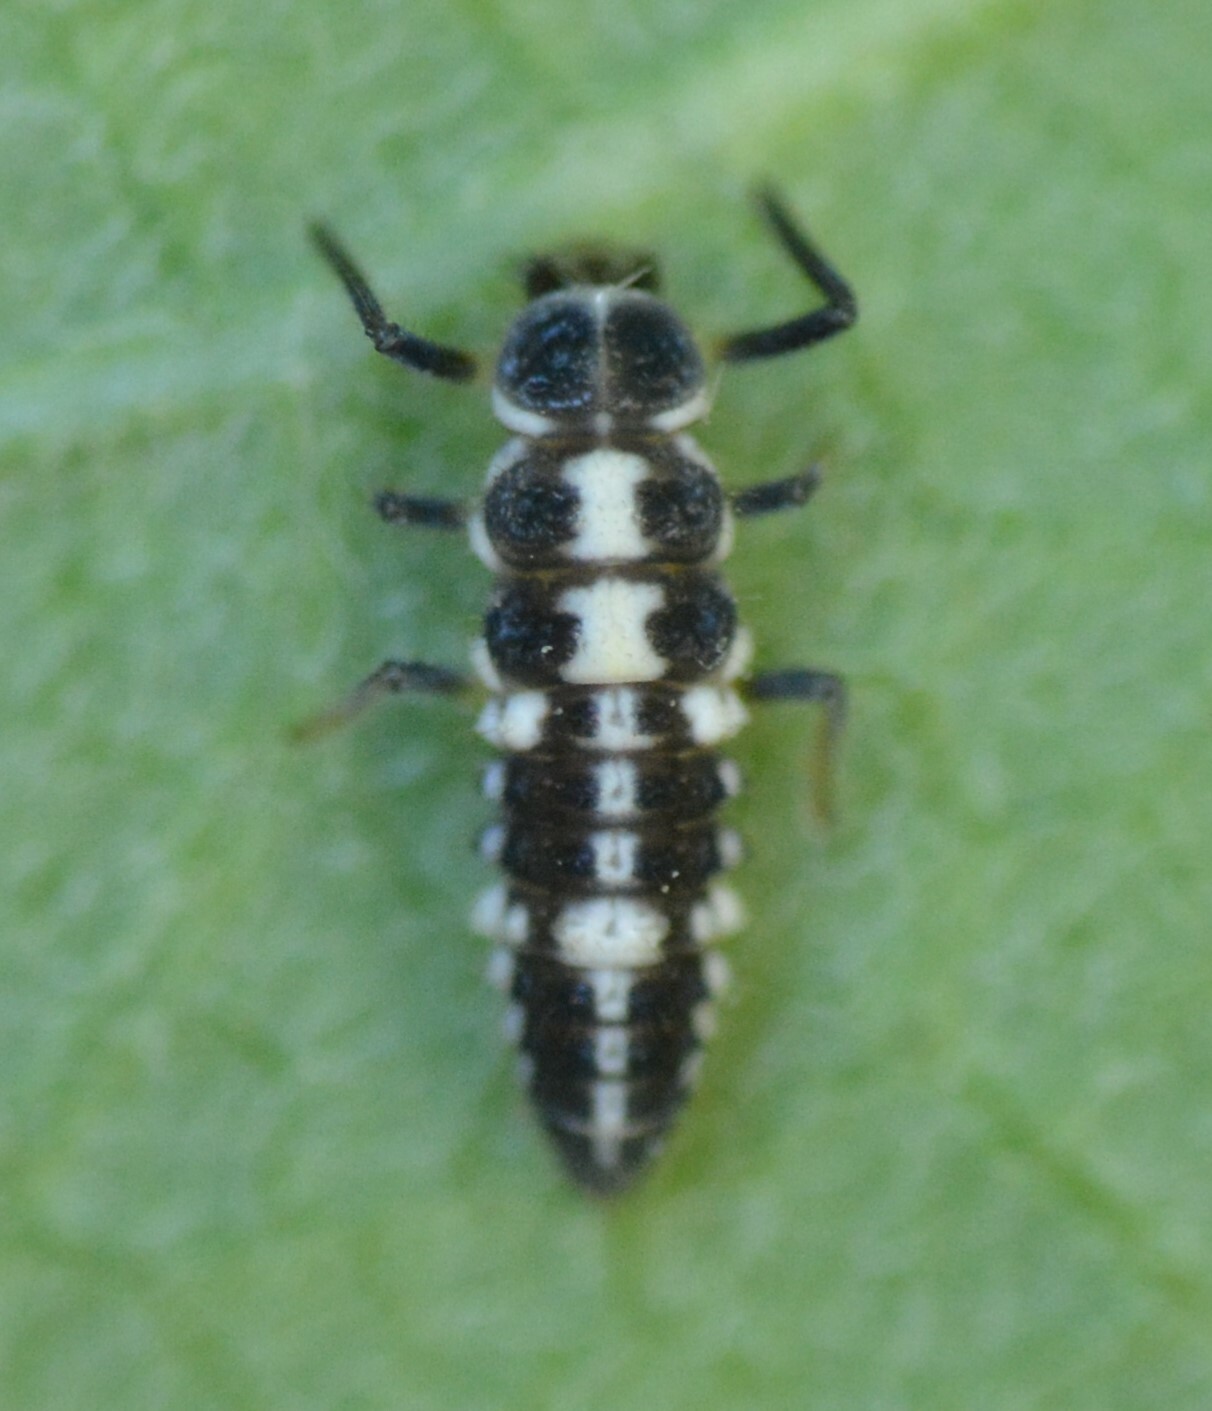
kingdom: Animalia
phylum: Arthropoda
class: Insecta
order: Coleoptera
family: Coccinellidae
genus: Propylaea
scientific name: Propylaea quatuordecimpunctata
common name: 14-spotted ladybird beetle
